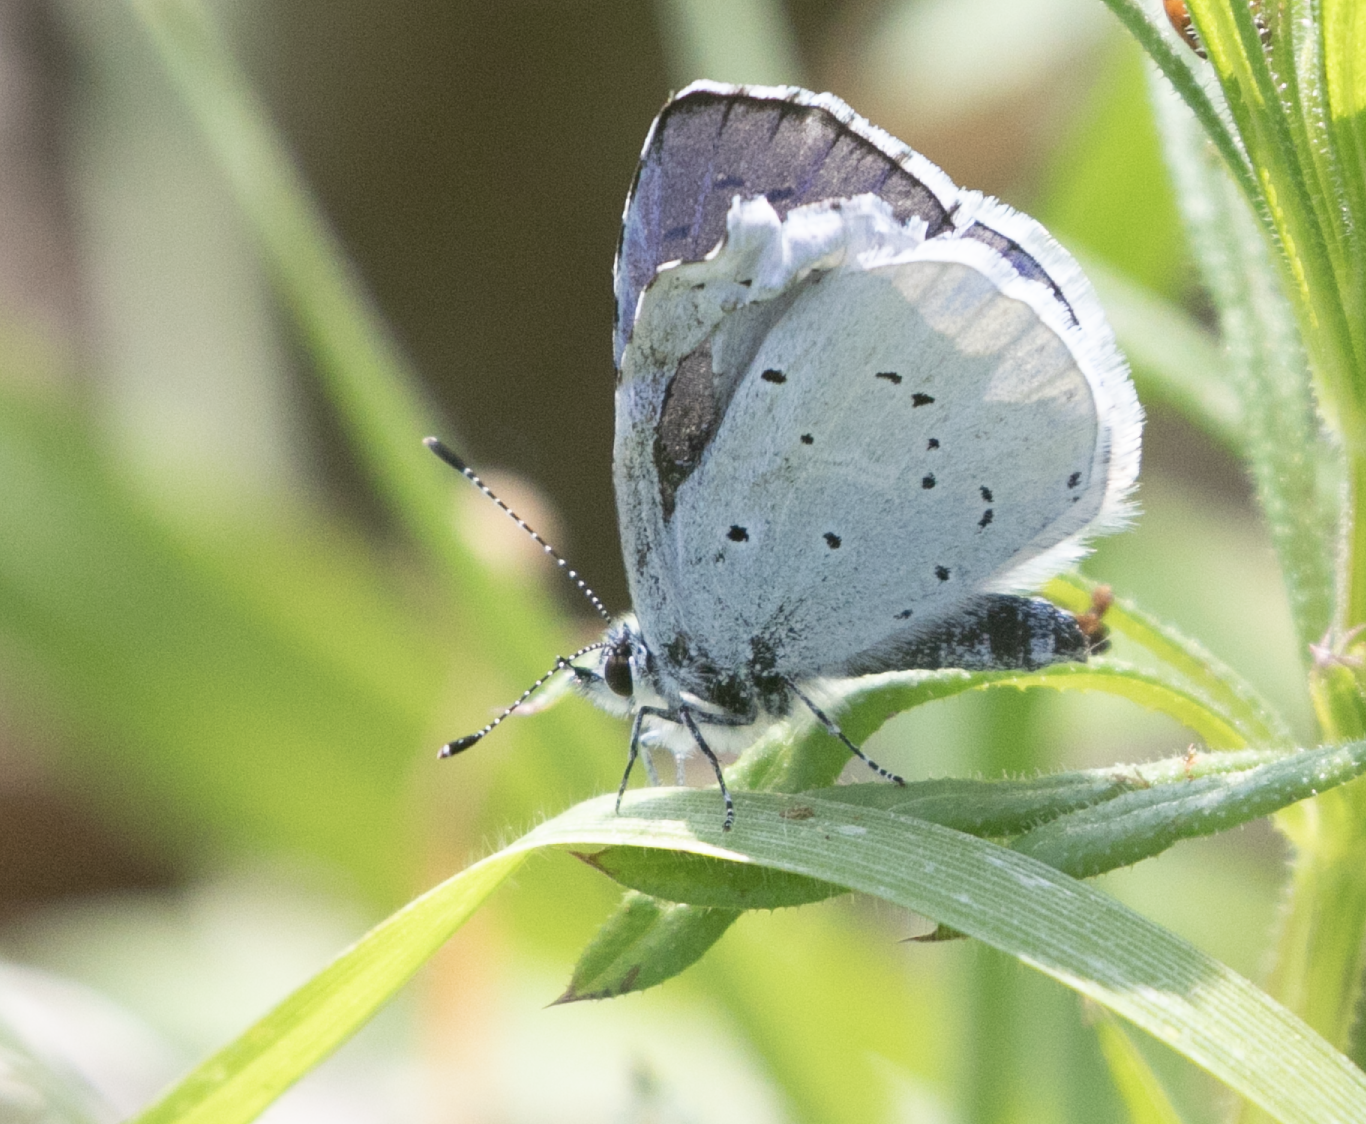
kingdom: Animalia
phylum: Arthropoda
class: Insecta
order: Lepidoptera
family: Lycaenidae
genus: Celastrina
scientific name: Celastrina argiolus
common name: Holly blue
